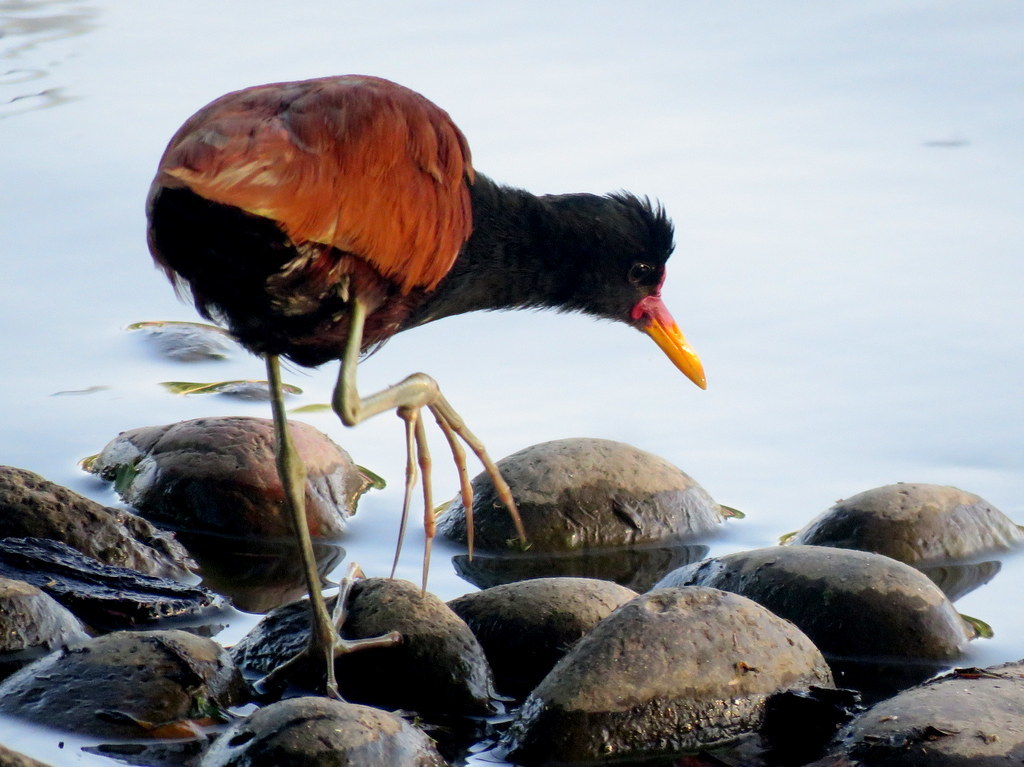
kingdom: Animalia
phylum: Chordata
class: Aves
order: Charadriiformes
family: Jacanidae
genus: Jacana
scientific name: Jacana jacana
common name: Wattled jacana
